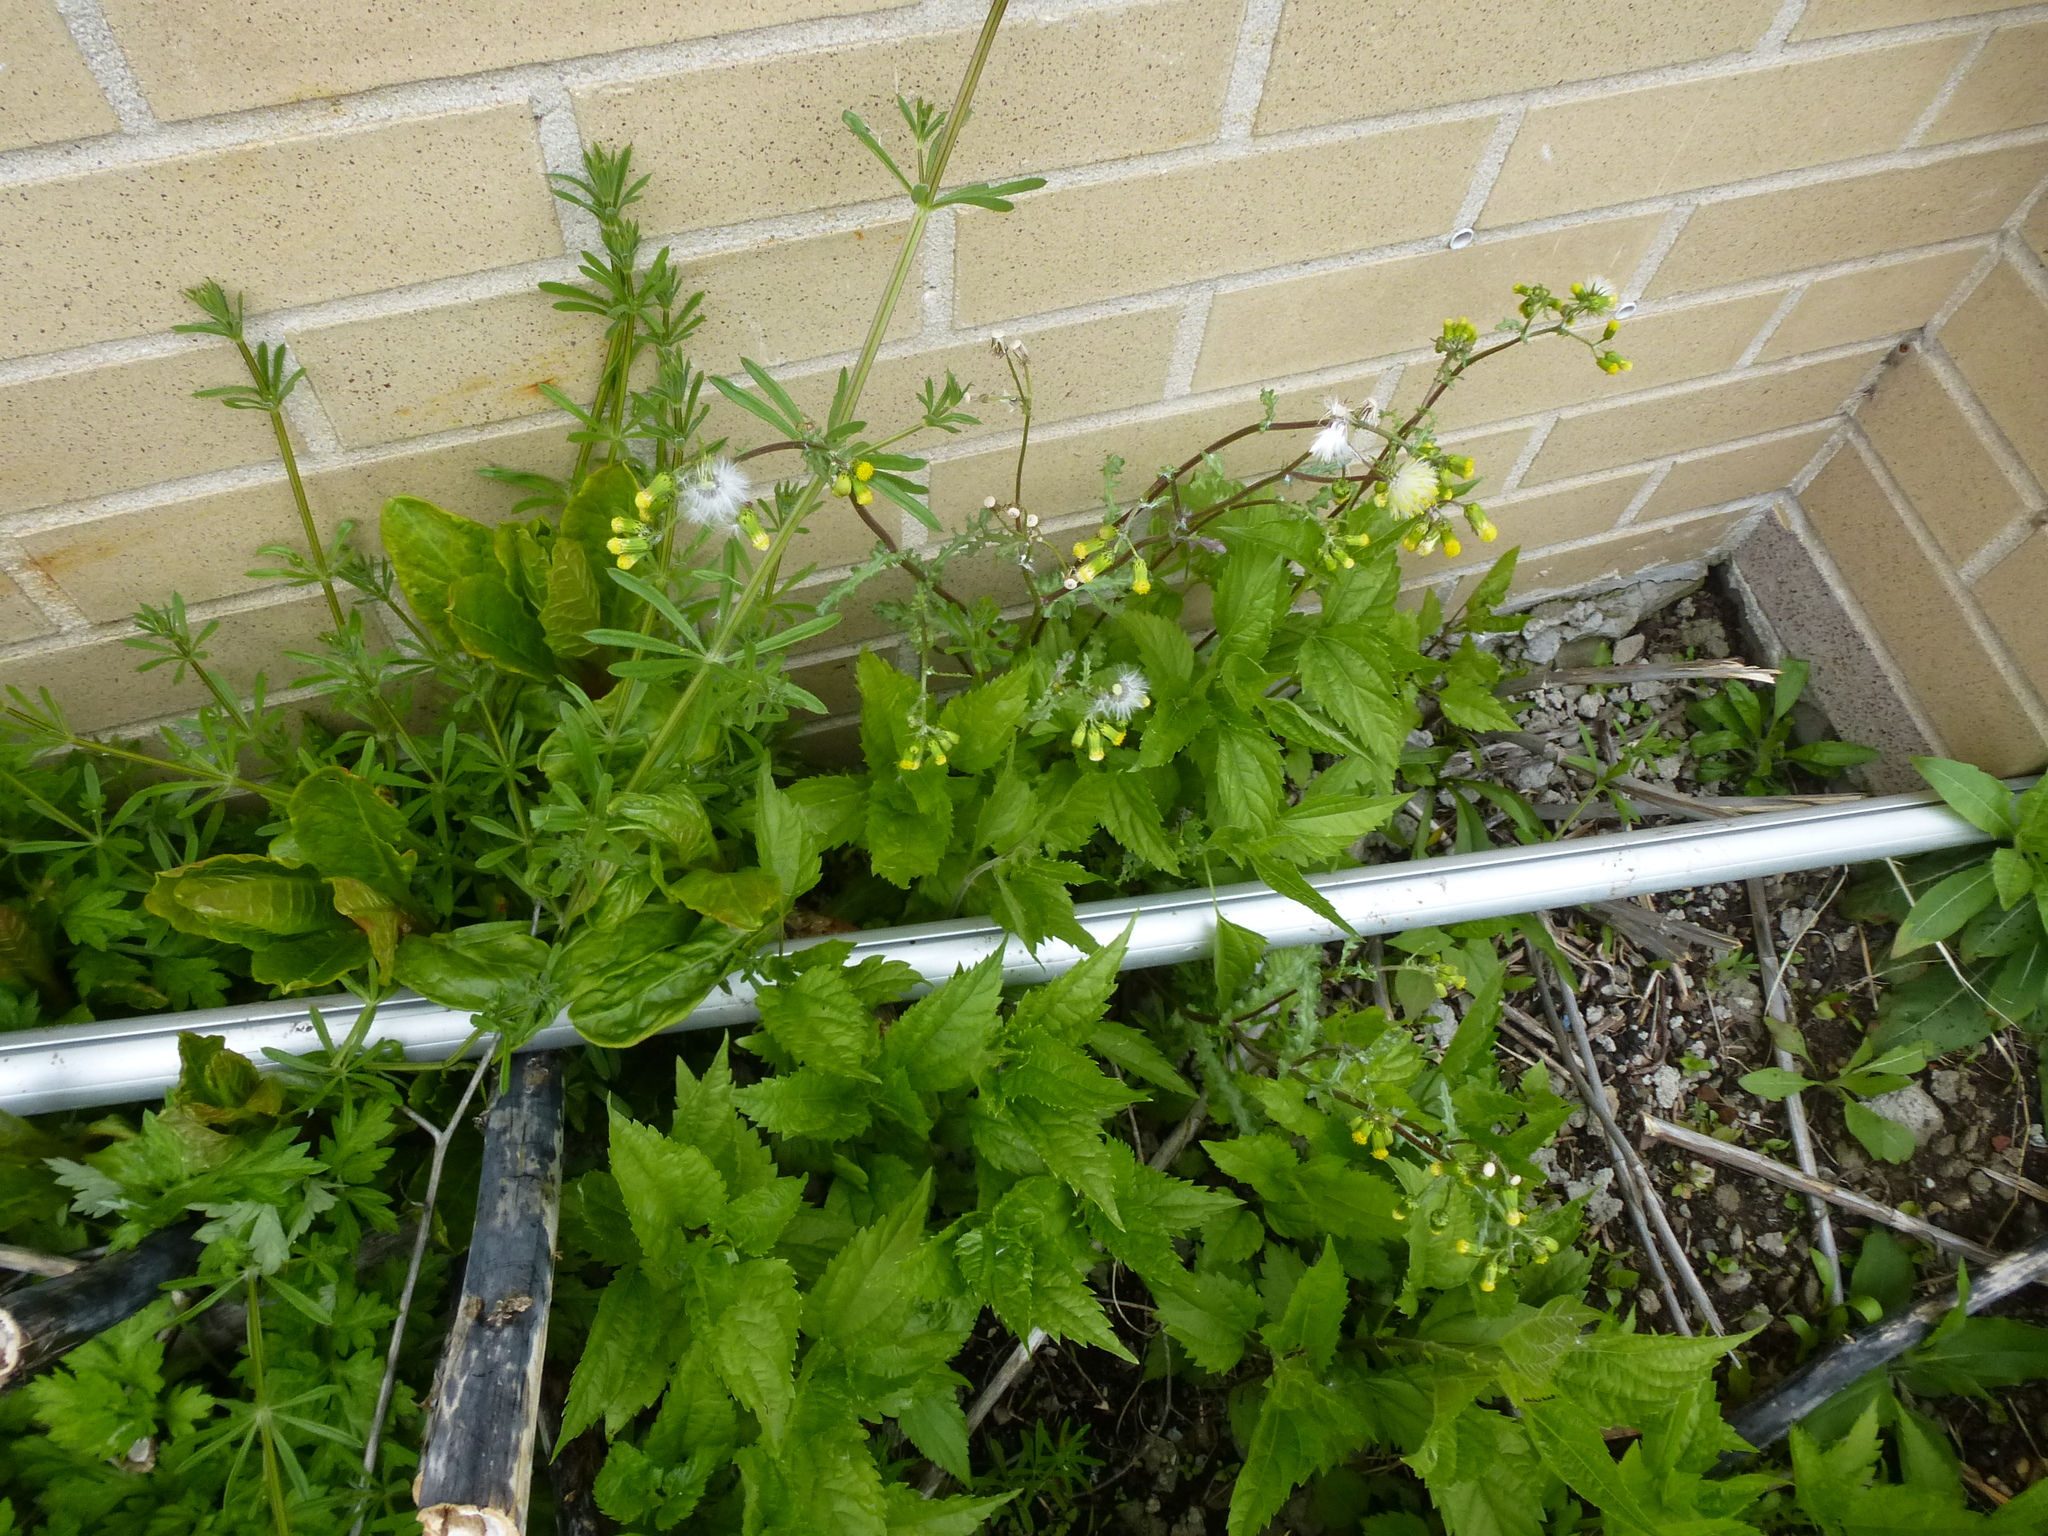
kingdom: Plantae
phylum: Tracheophyta
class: Magnoliopsida
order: Gentianales
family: Rubiaceae
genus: Galium
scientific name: Galium aparine
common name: Cleavers
